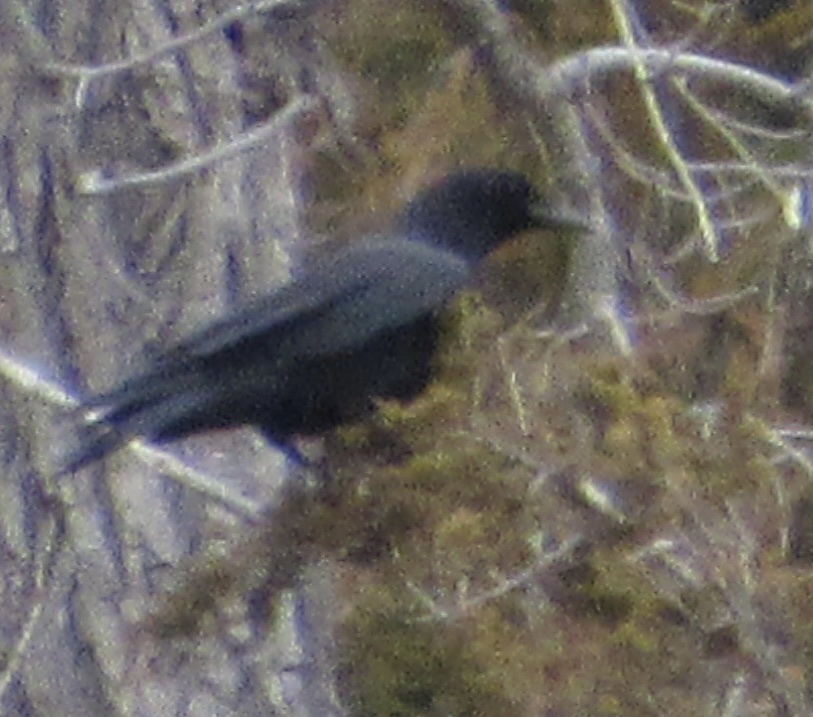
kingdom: Animalia
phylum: Chordata
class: Aves
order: Passeriformes
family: Corvidae
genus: Corvus
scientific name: Corvus brachyrhynchos
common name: American crow
